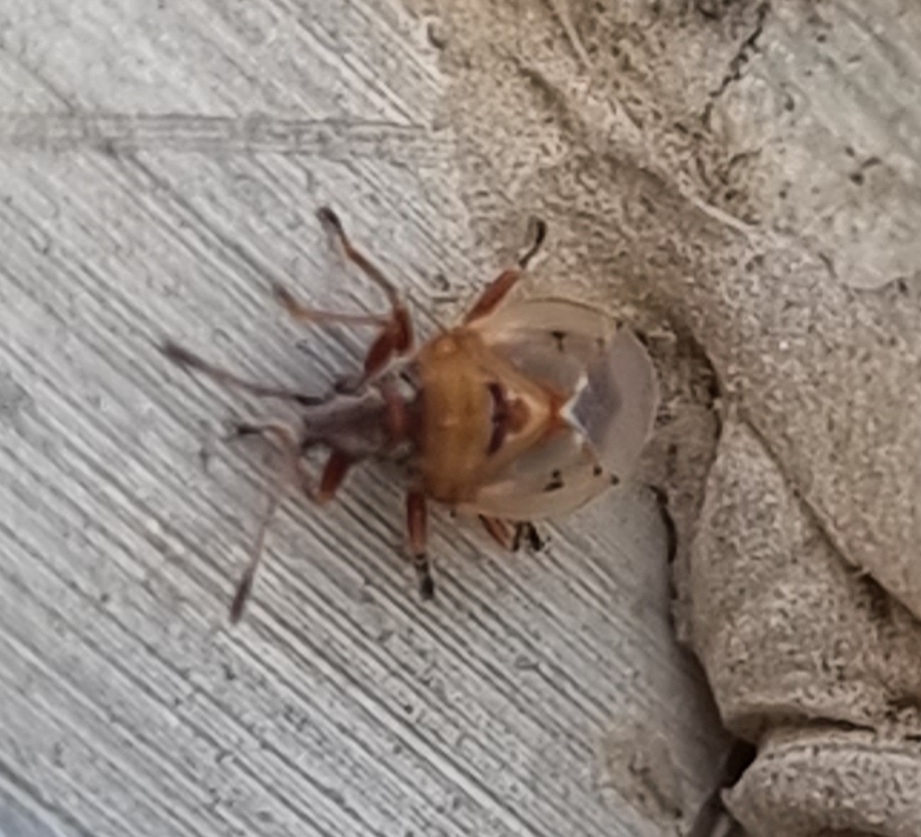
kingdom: Animalia
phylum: Arthropoda
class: Insecta
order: Hemiptera
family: Lygaeidae
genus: Kleidocerys
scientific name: Kleidocerys resedae
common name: Birch catkin bug
